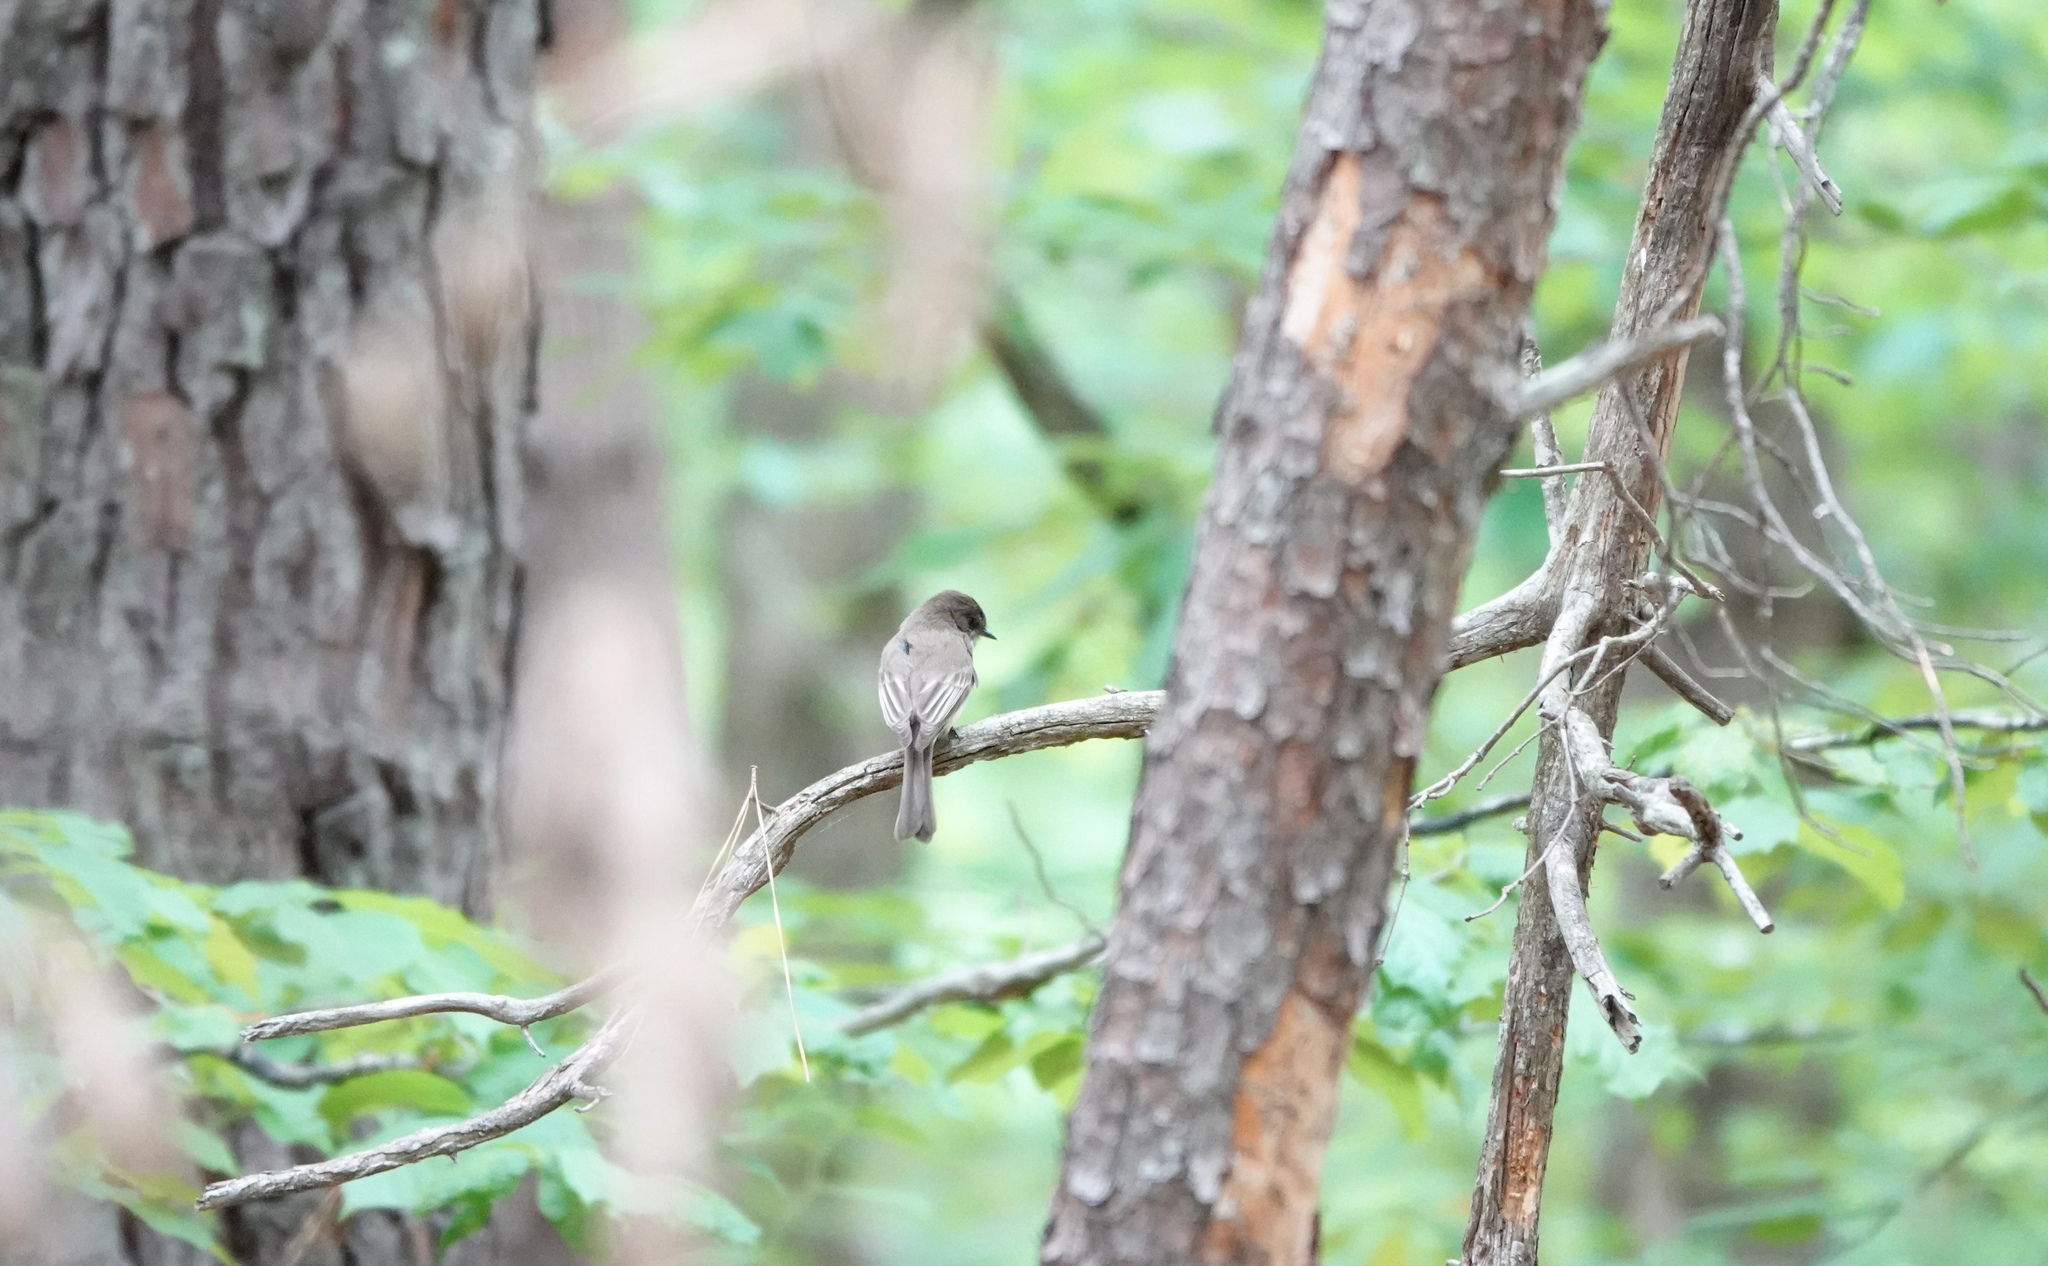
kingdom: Animalia
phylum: Chordata
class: Aves
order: Passeriformes
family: Tyrannidae
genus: Sayornis
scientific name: Sayornis phoebe
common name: Eastern phoebe
